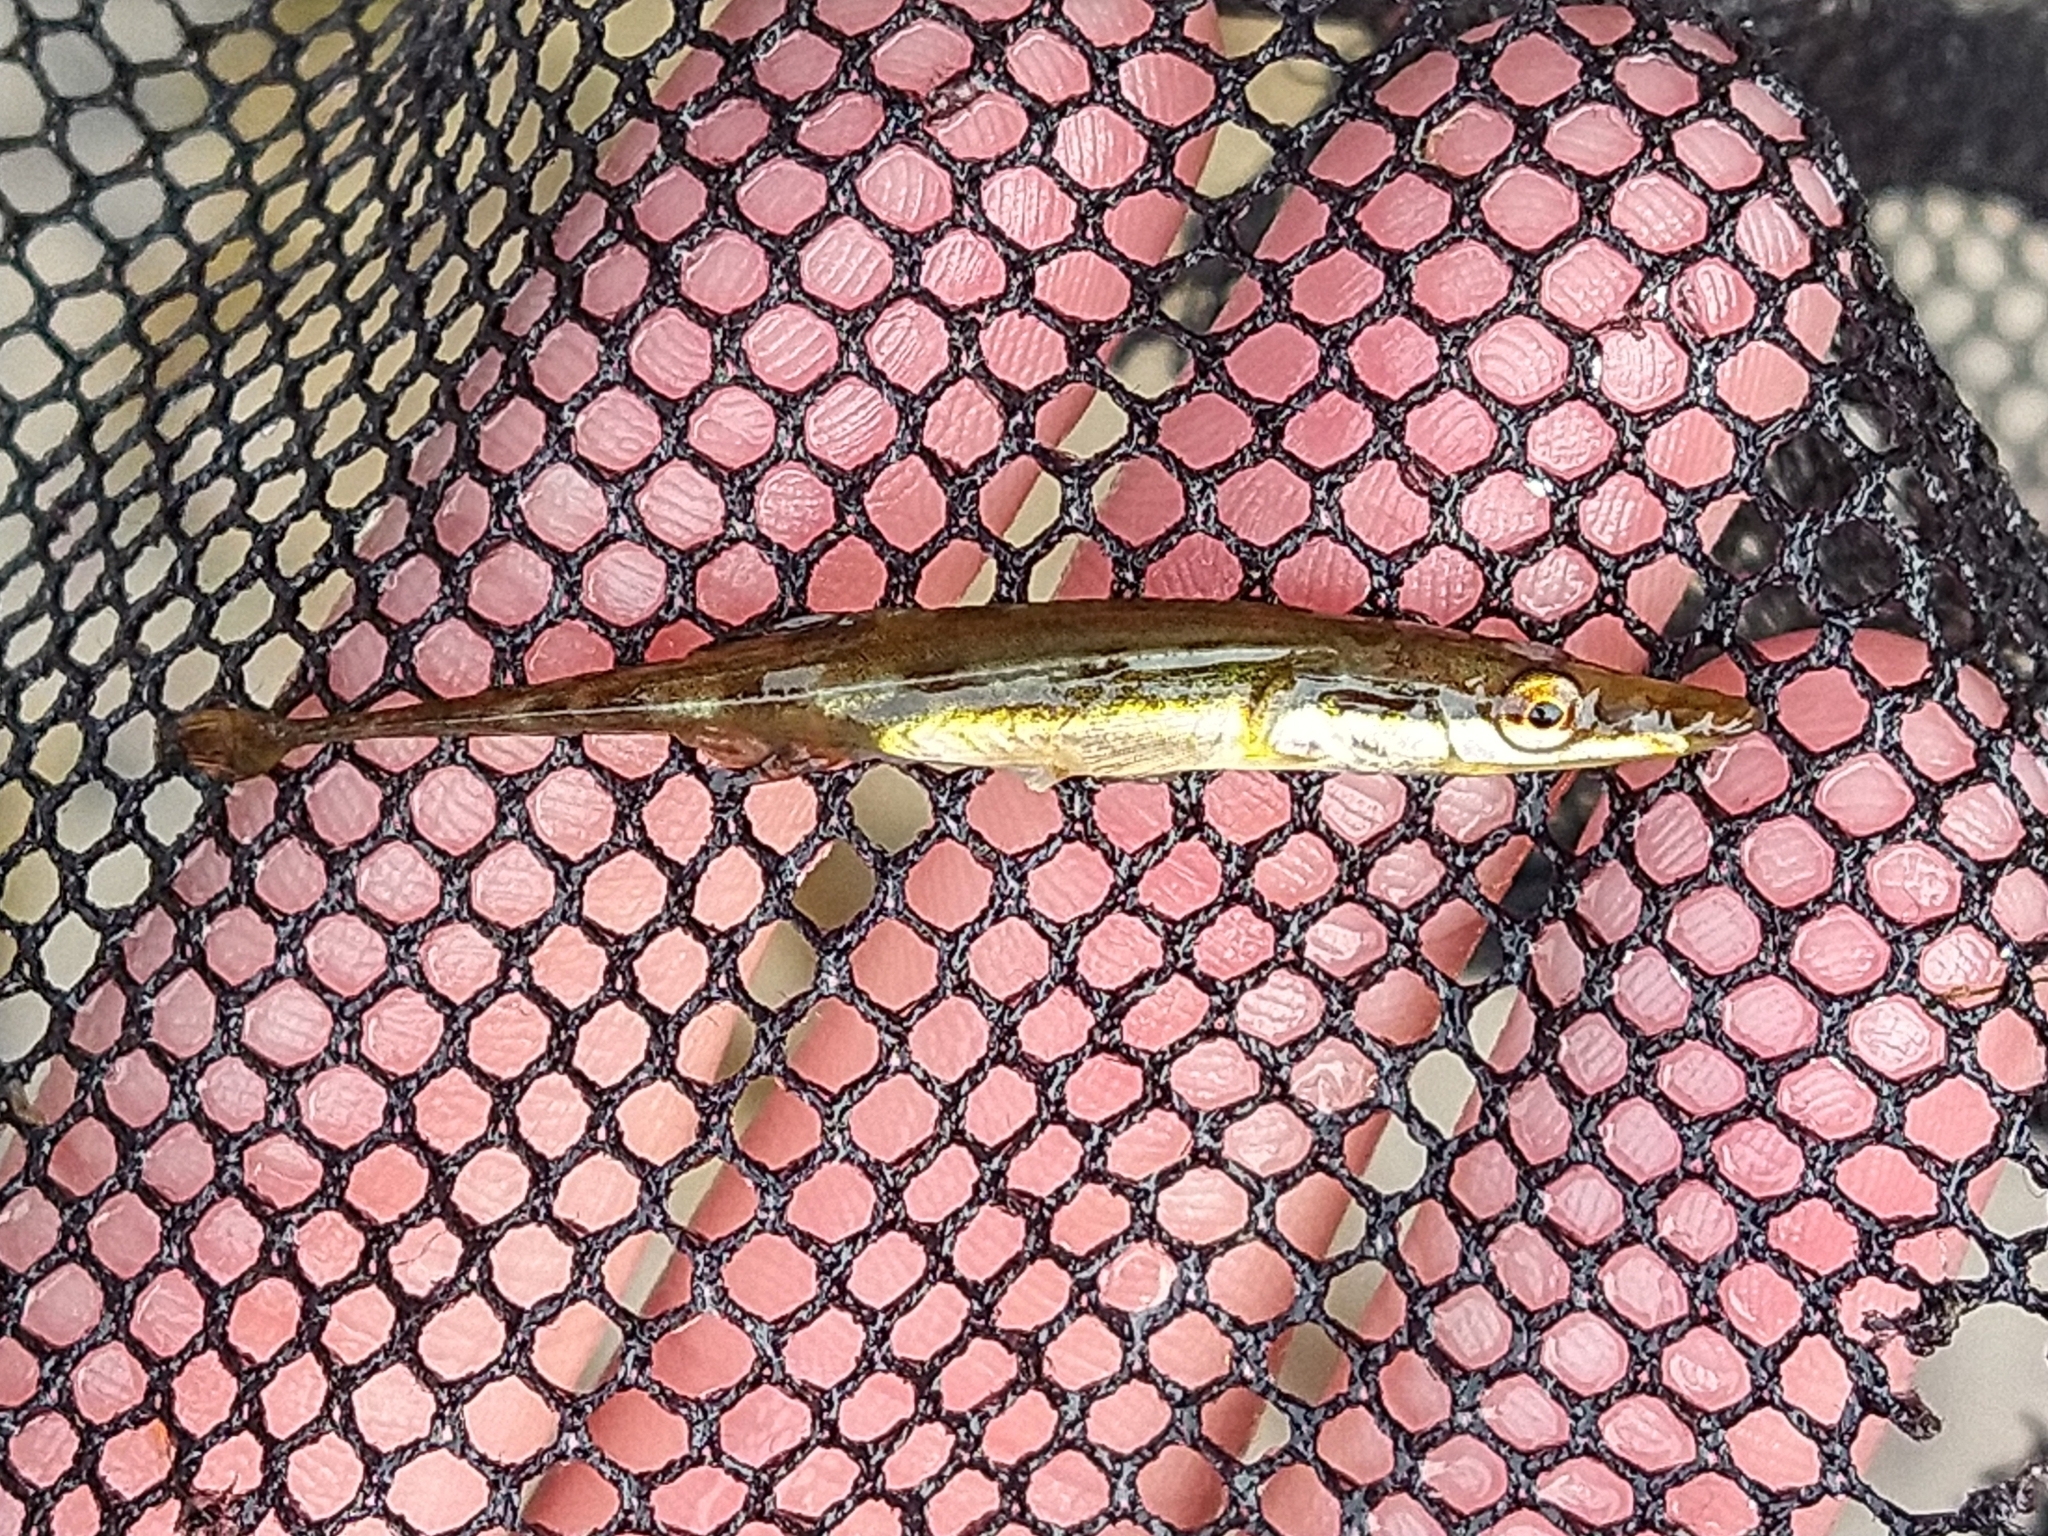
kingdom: Animalia
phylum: Chordata
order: Gasterosteiformes
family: Gasterosteidae
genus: Spinachia
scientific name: Spinachia spinachia
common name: Fifteen-spined stickleback
